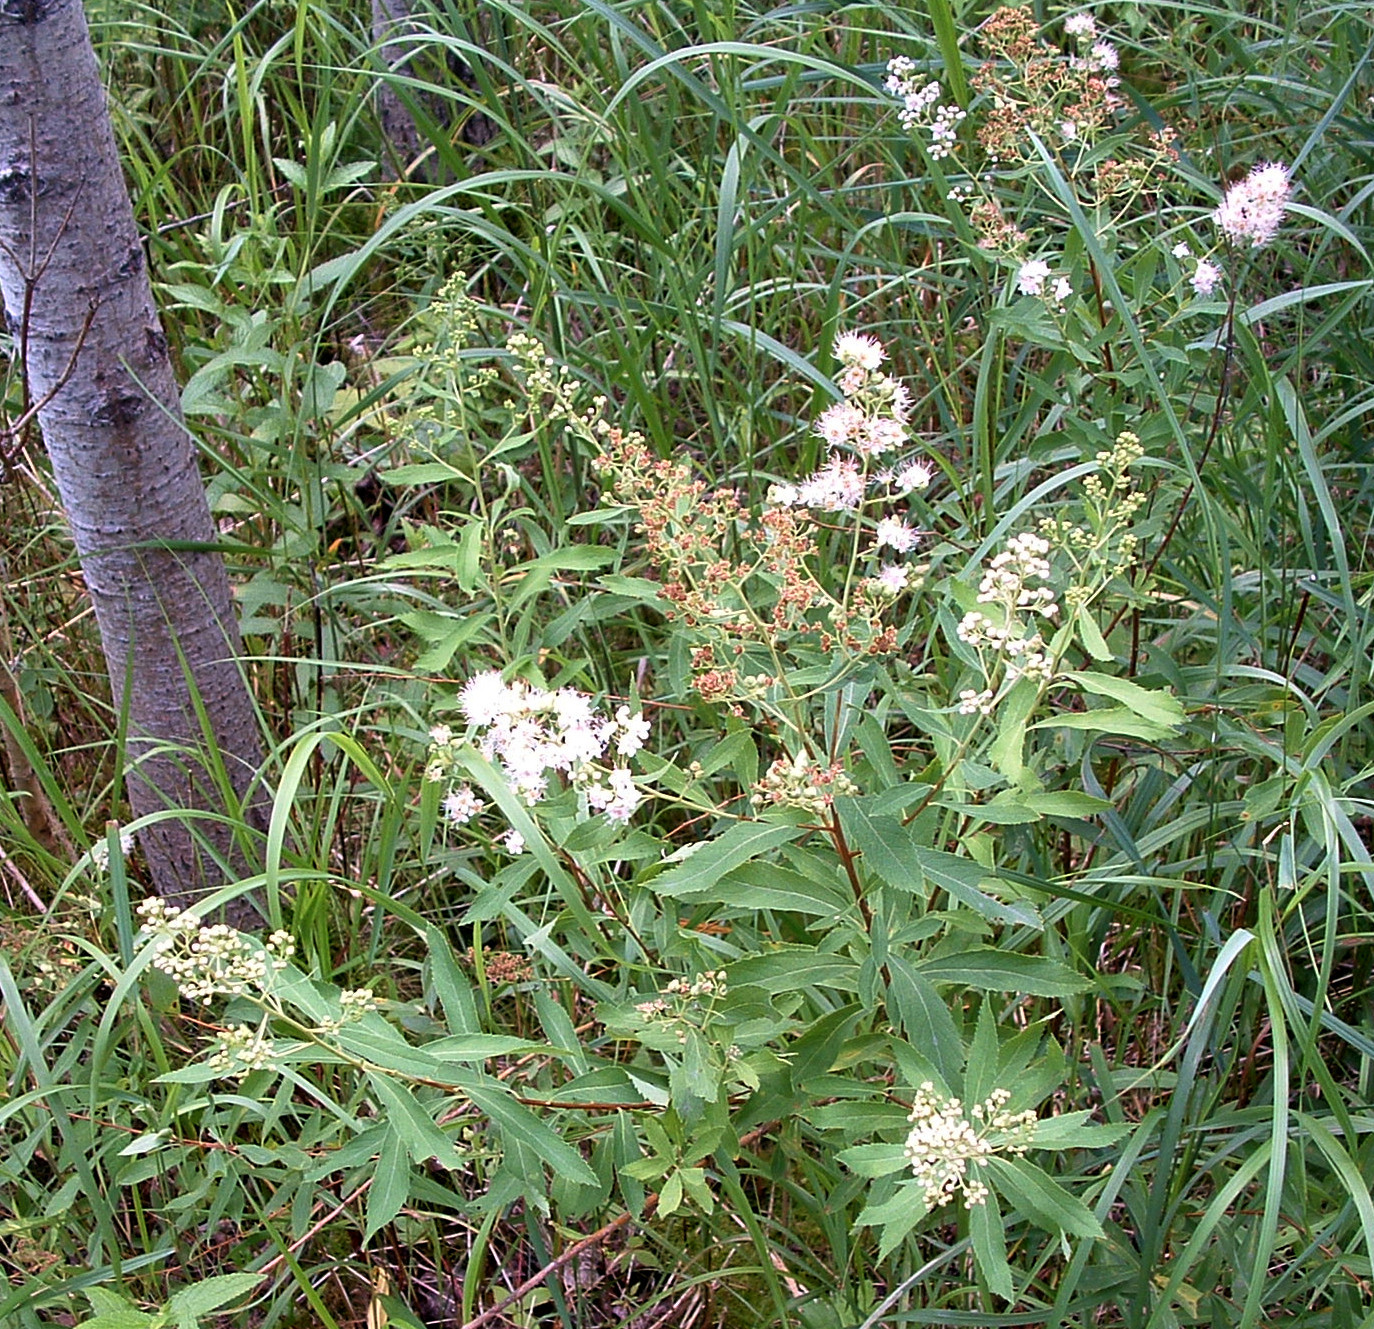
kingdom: Plantae
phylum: Tracheophyta
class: Magnoliopsida
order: Rosales
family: Rosaceae
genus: Spiraea
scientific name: Spiraea alba
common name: Pale bridewort
